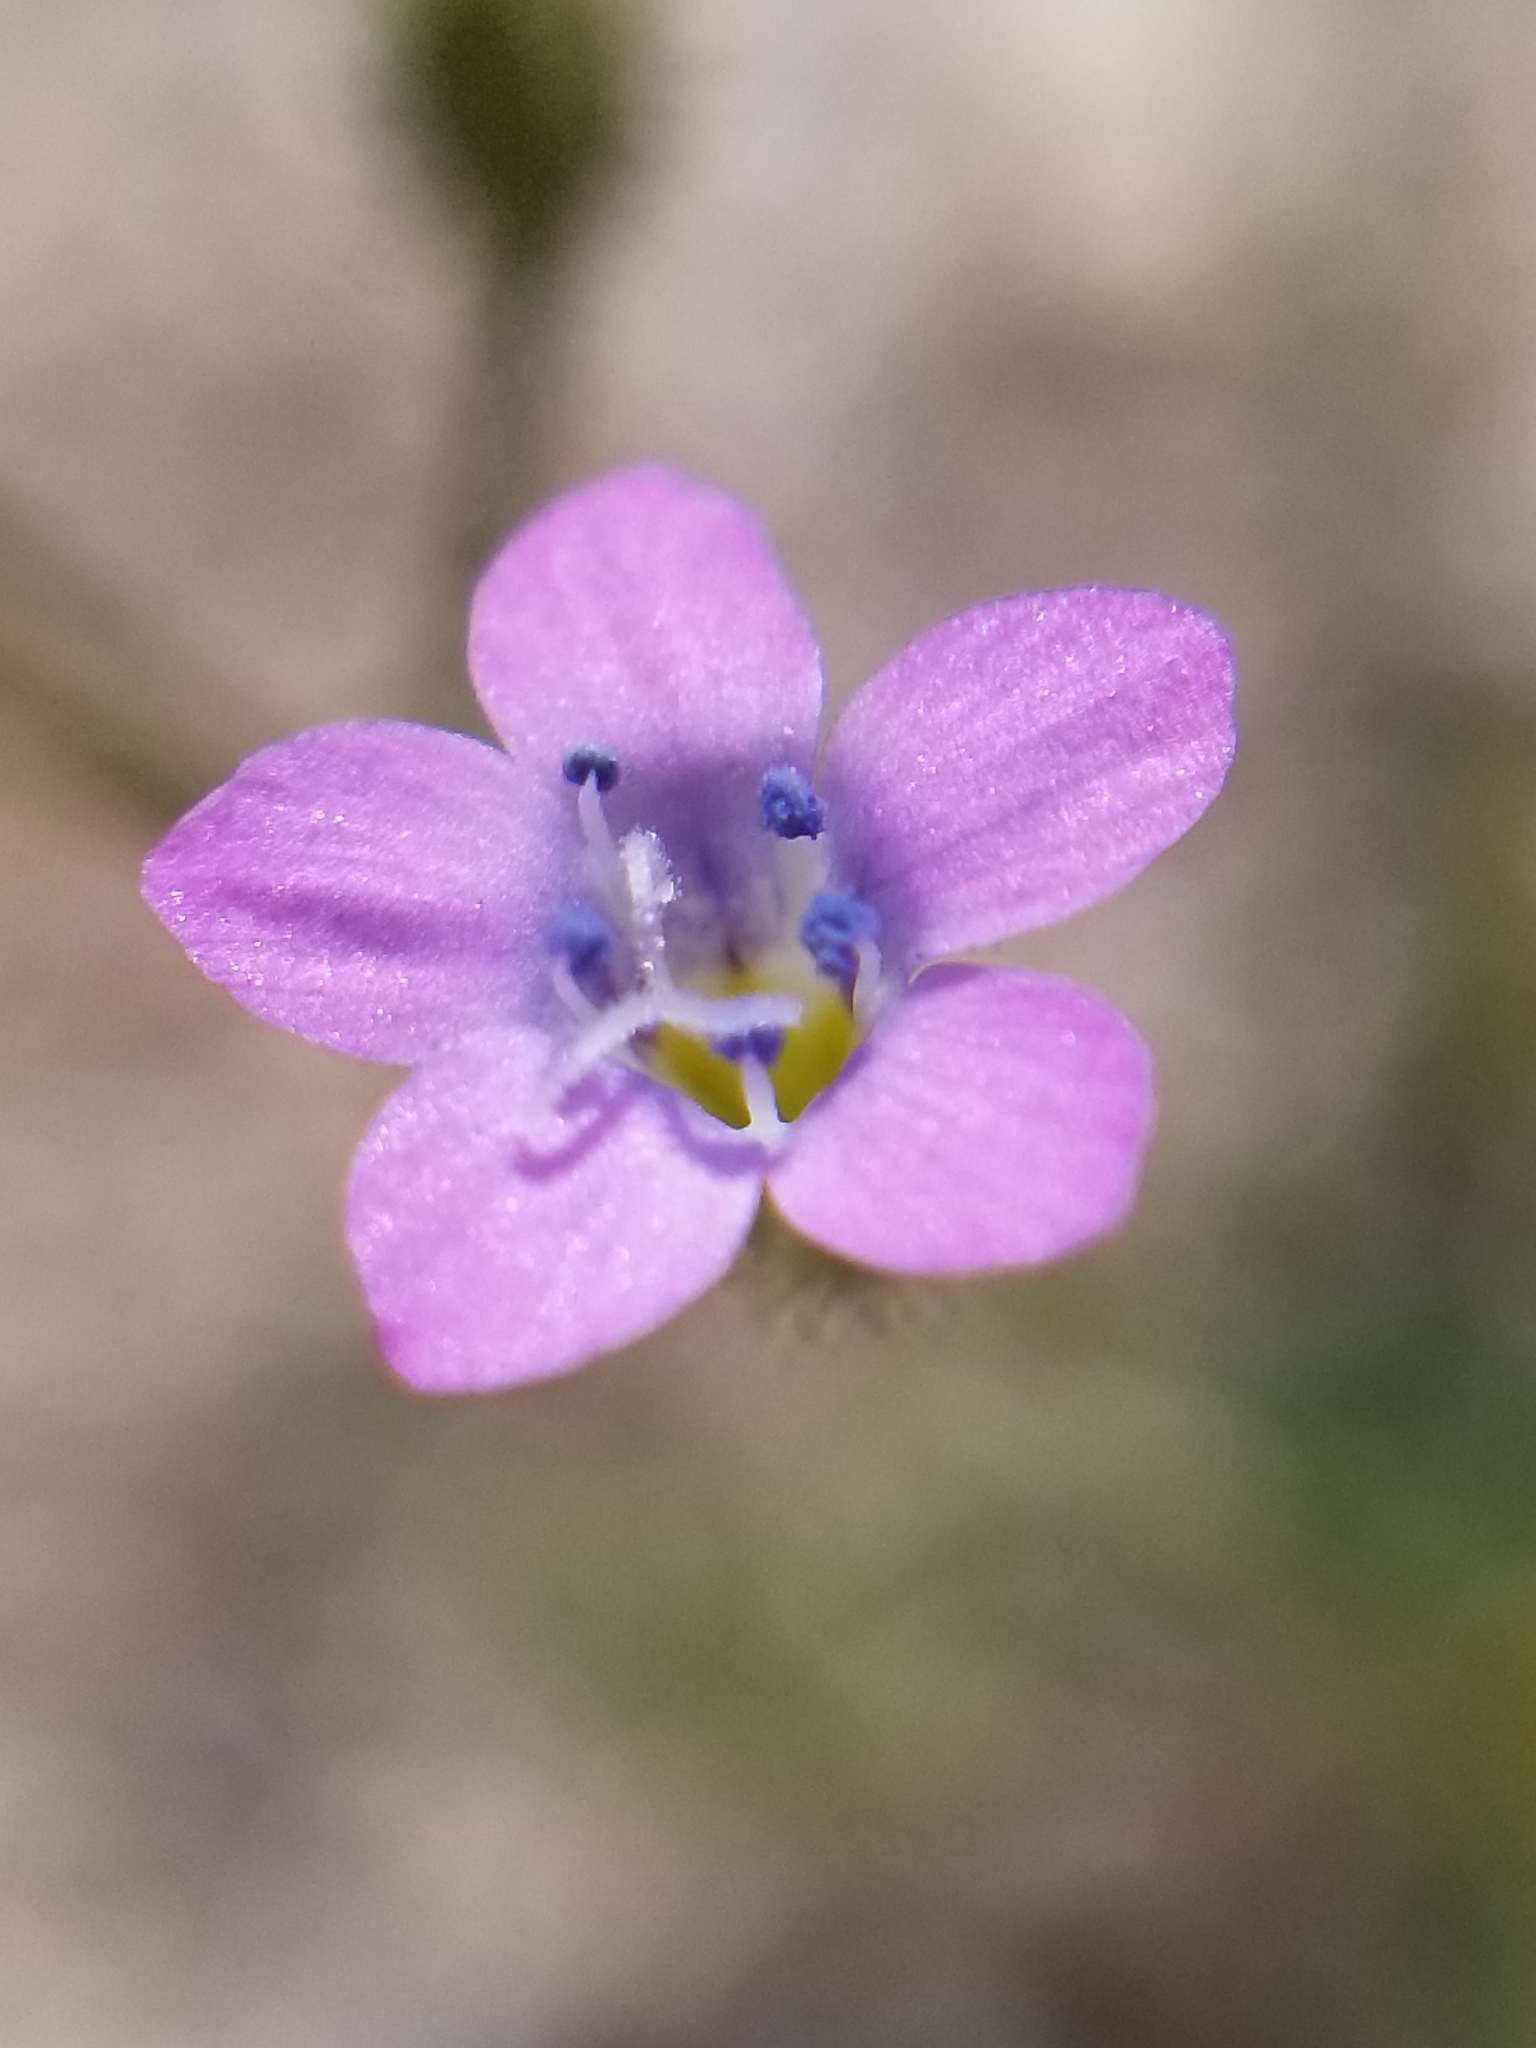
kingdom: Plantae
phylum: Tracheophyta
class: Magnoliopsida
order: Ericales
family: Polemoniaceae
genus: Gilia
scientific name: Gilia stellata
